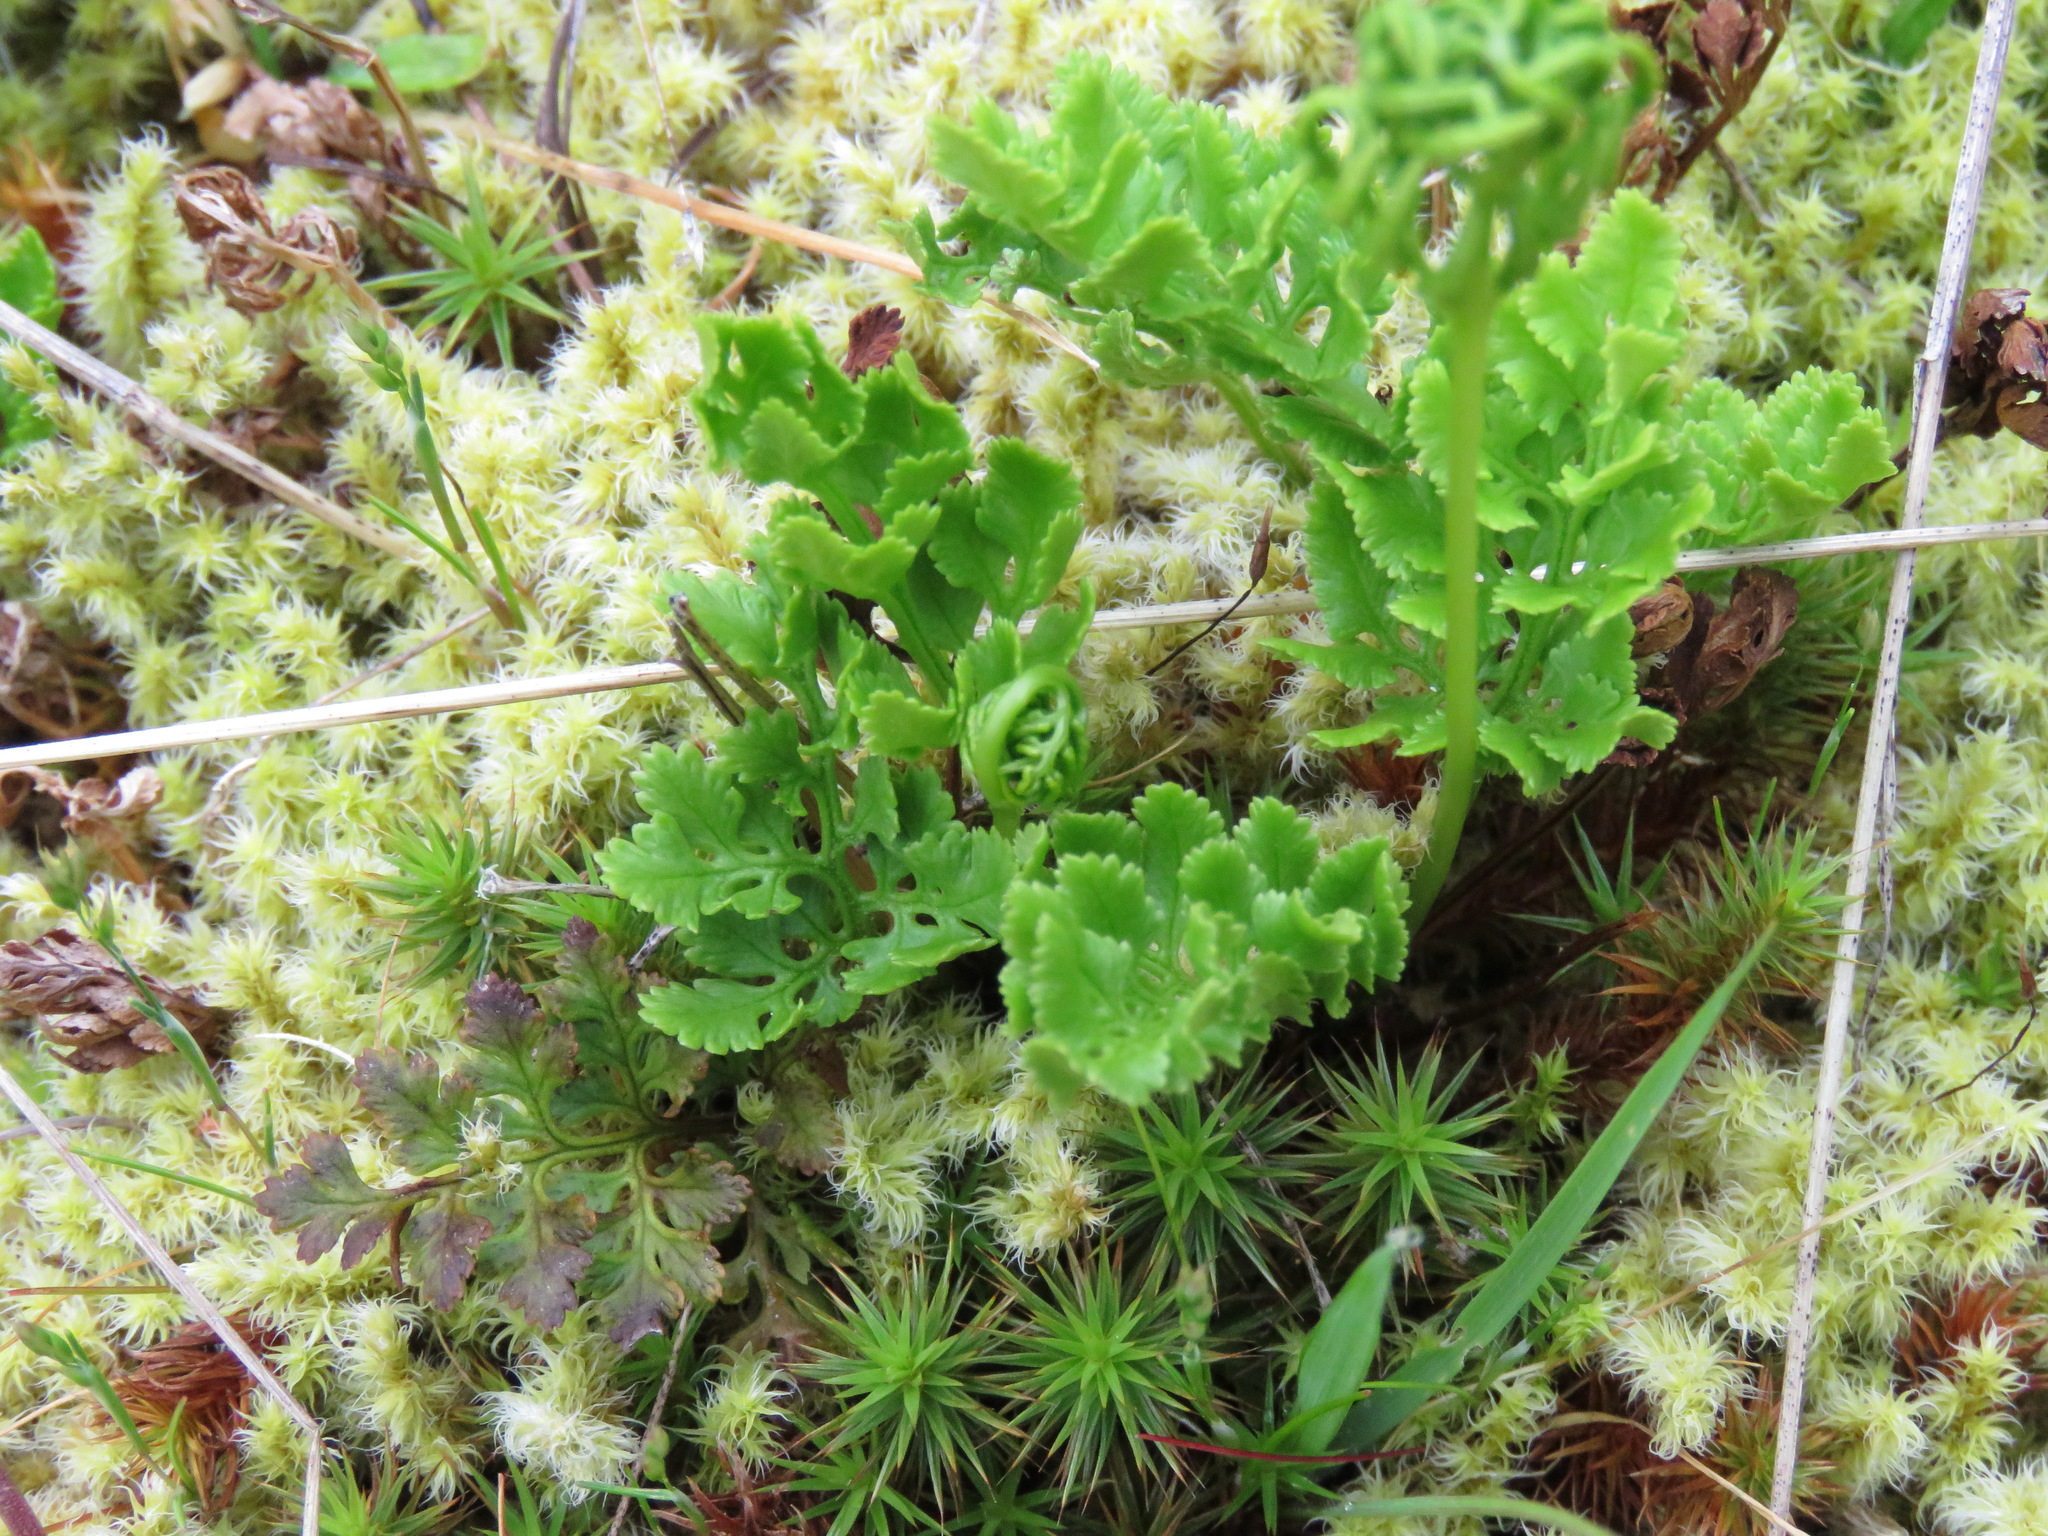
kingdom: Plantae
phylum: Tracheophyta
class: Polypodiopsida
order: Polypodiales
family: Pteridaceae
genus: Cryptogramma
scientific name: Cryptogramma acrostichoides
